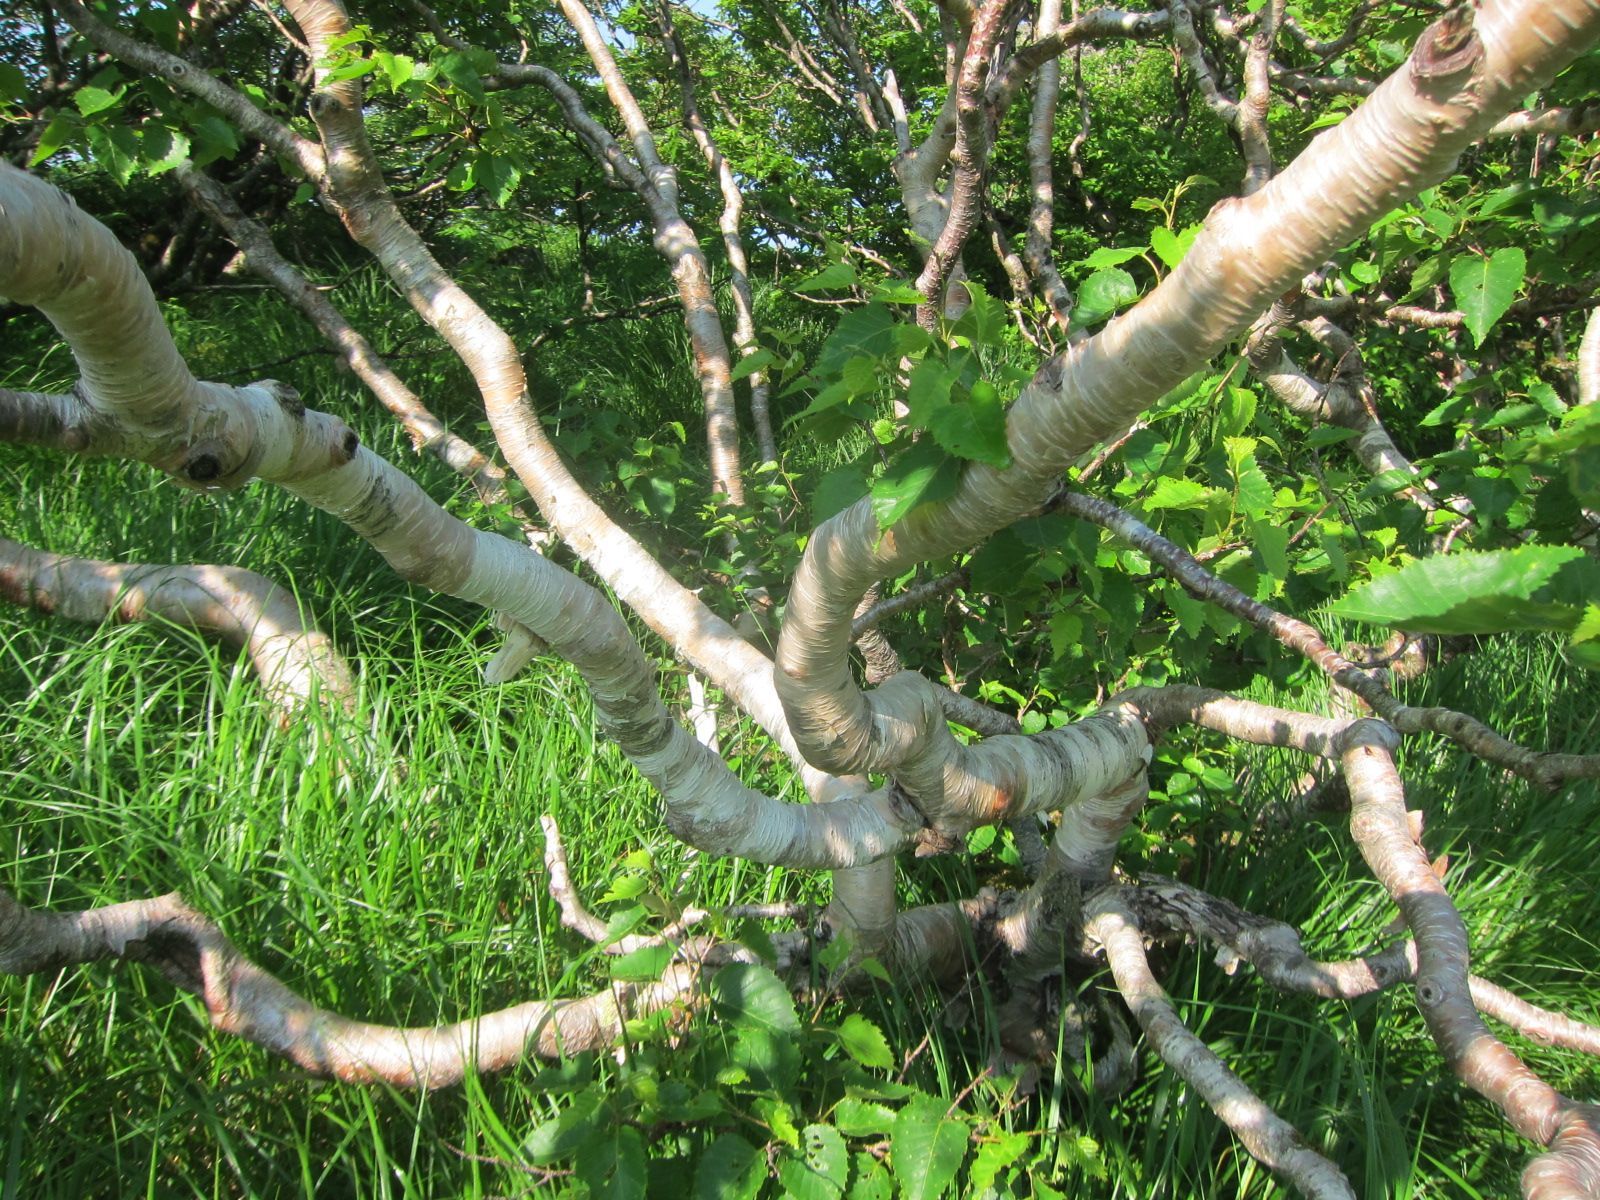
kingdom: Plantae
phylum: Tracheophyta
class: Magnoliopsida
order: Fagales
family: Betulaceae
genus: Betula
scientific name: Betula ermanii
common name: Erman's birch
